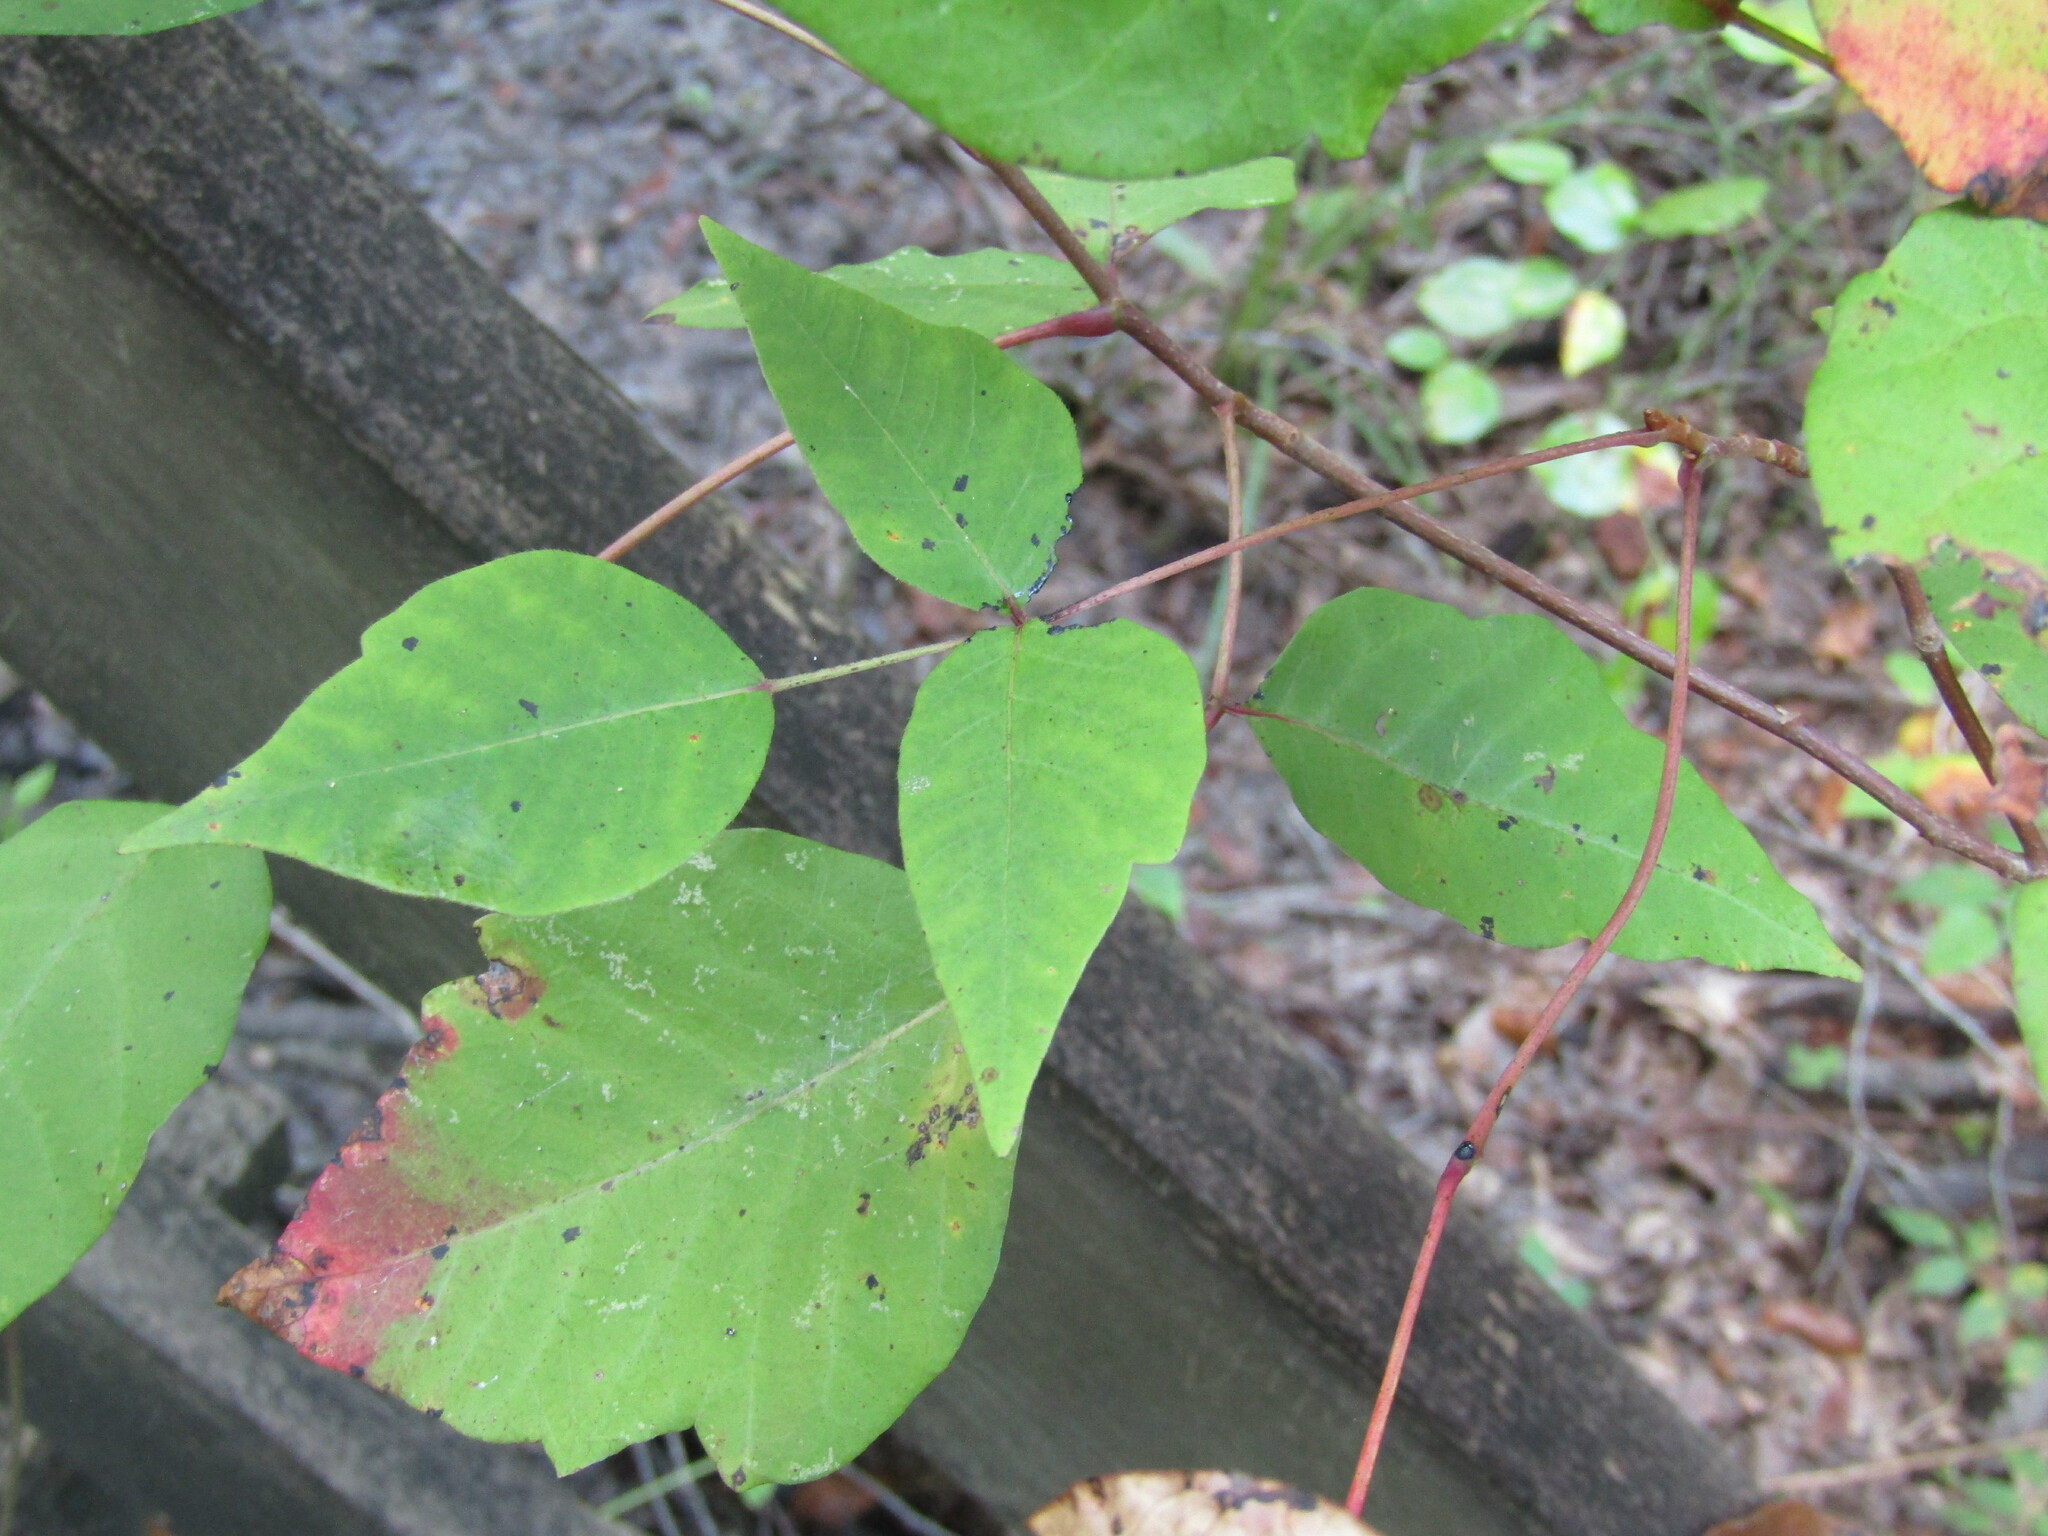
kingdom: Plantae
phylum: Tracheophyta
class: Magnoliopsida
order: Sapindales
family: Anacardiaceae
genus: Toxicodendron
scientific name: Toxicodendron radicans
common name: Poison ivy
